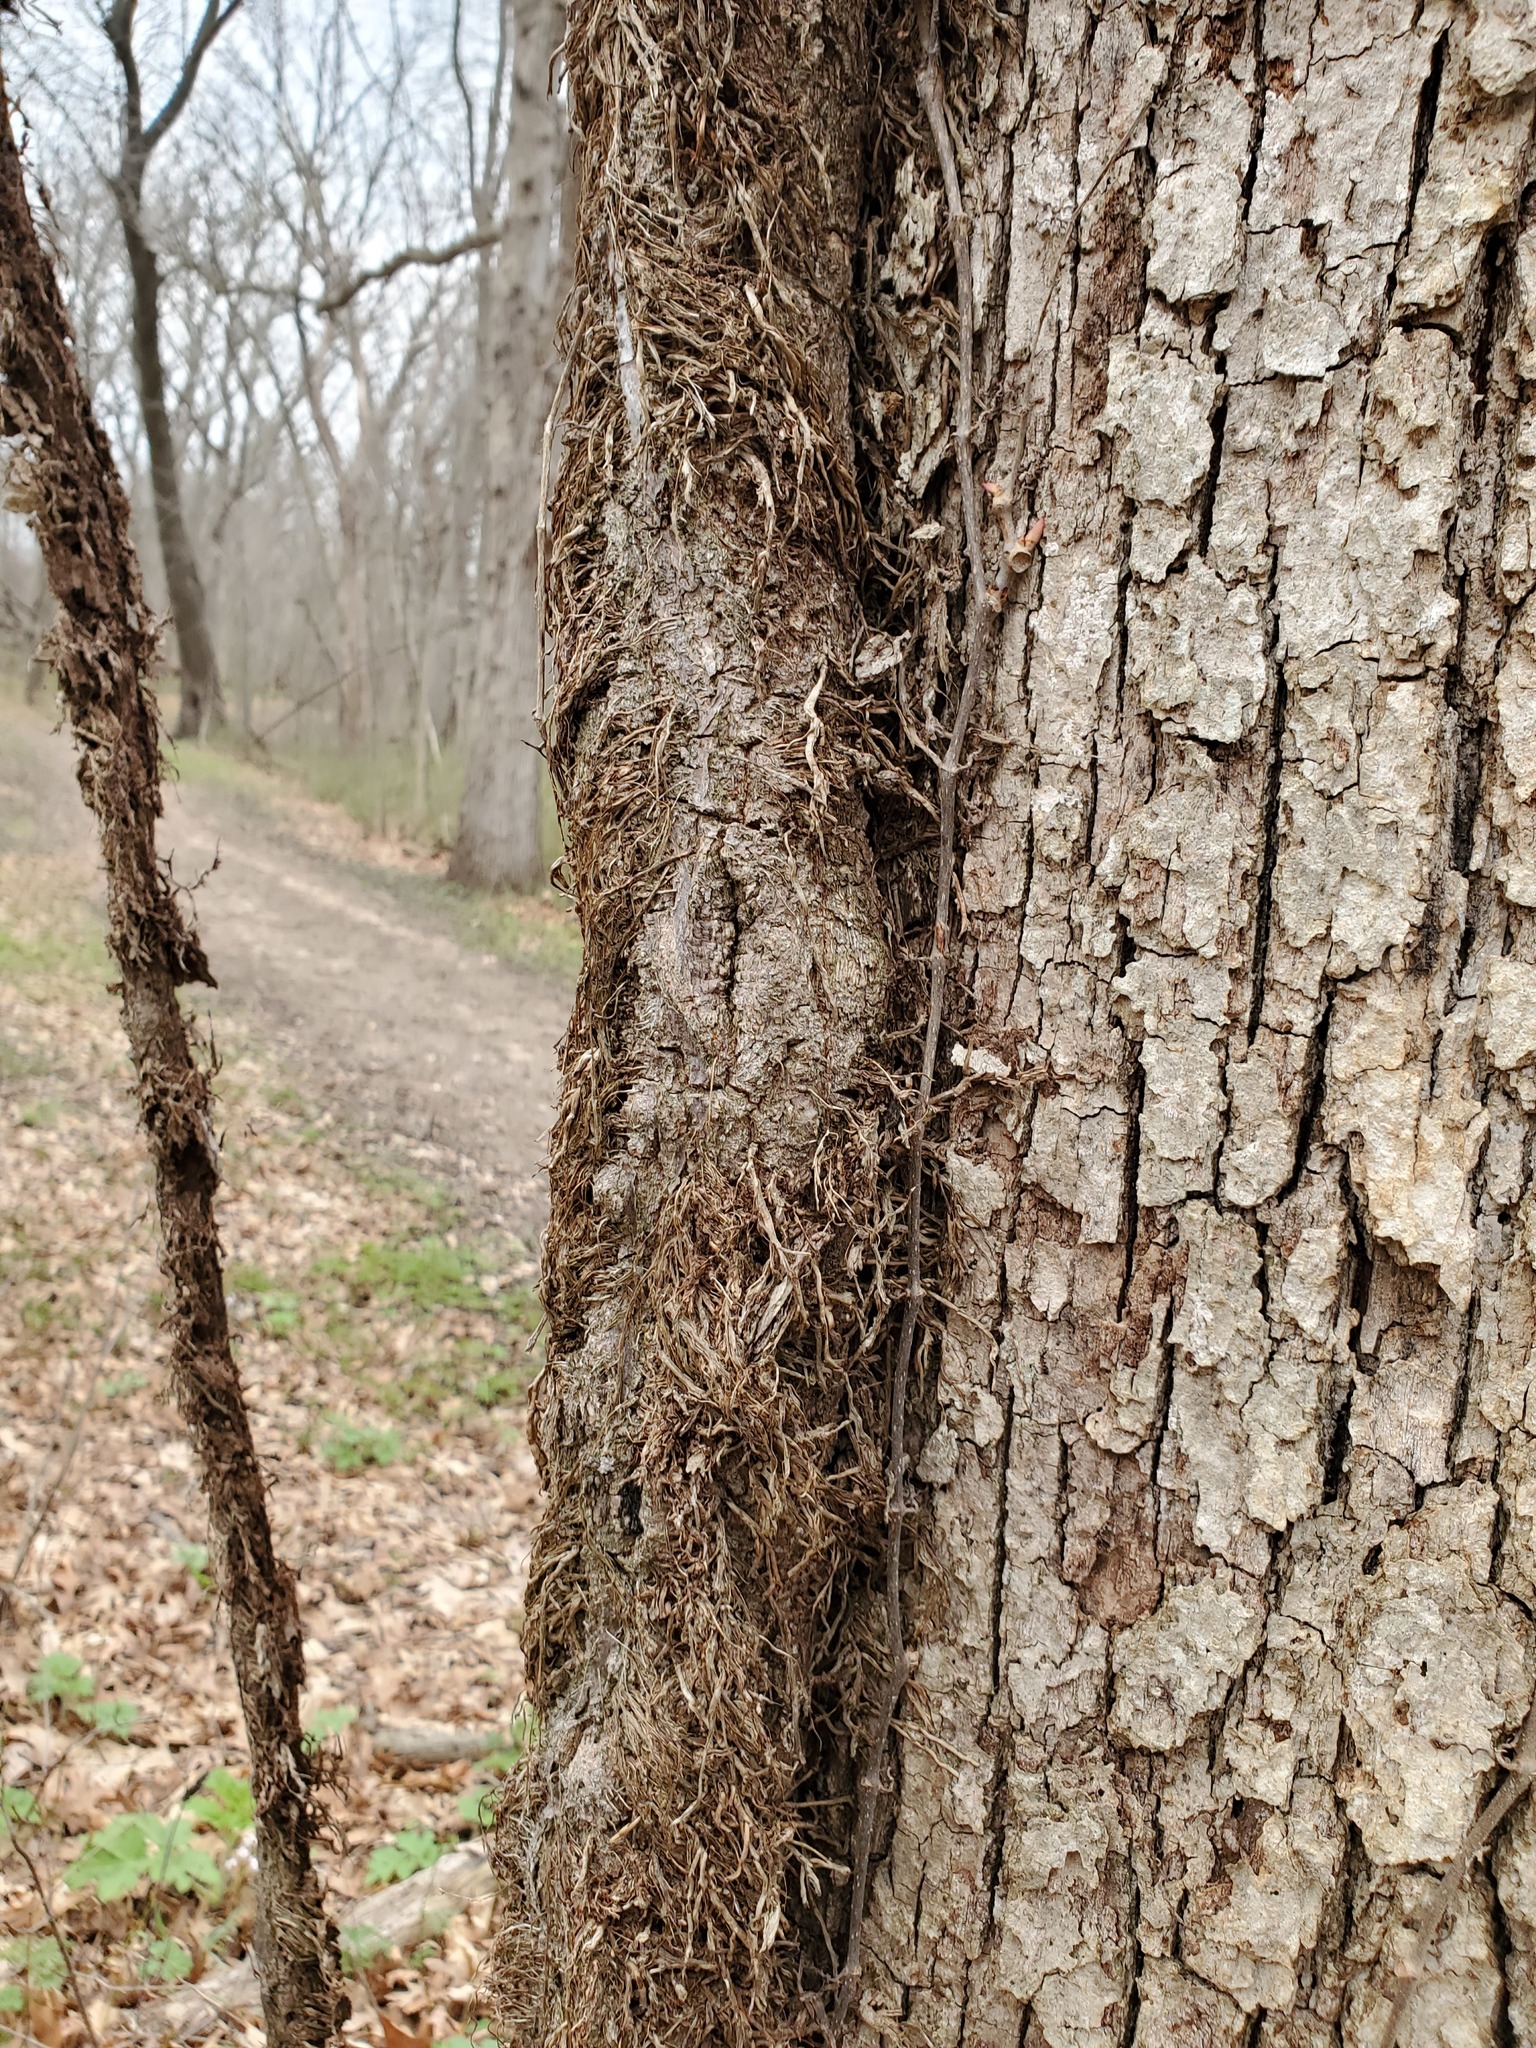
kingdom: Plantae
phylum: Tracheophyta
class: Magnoliopsida
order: Sapindales
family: Anacardiaceae
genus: Toxicodendron
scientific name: Toxicodendron radicans
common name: Poison ivy
